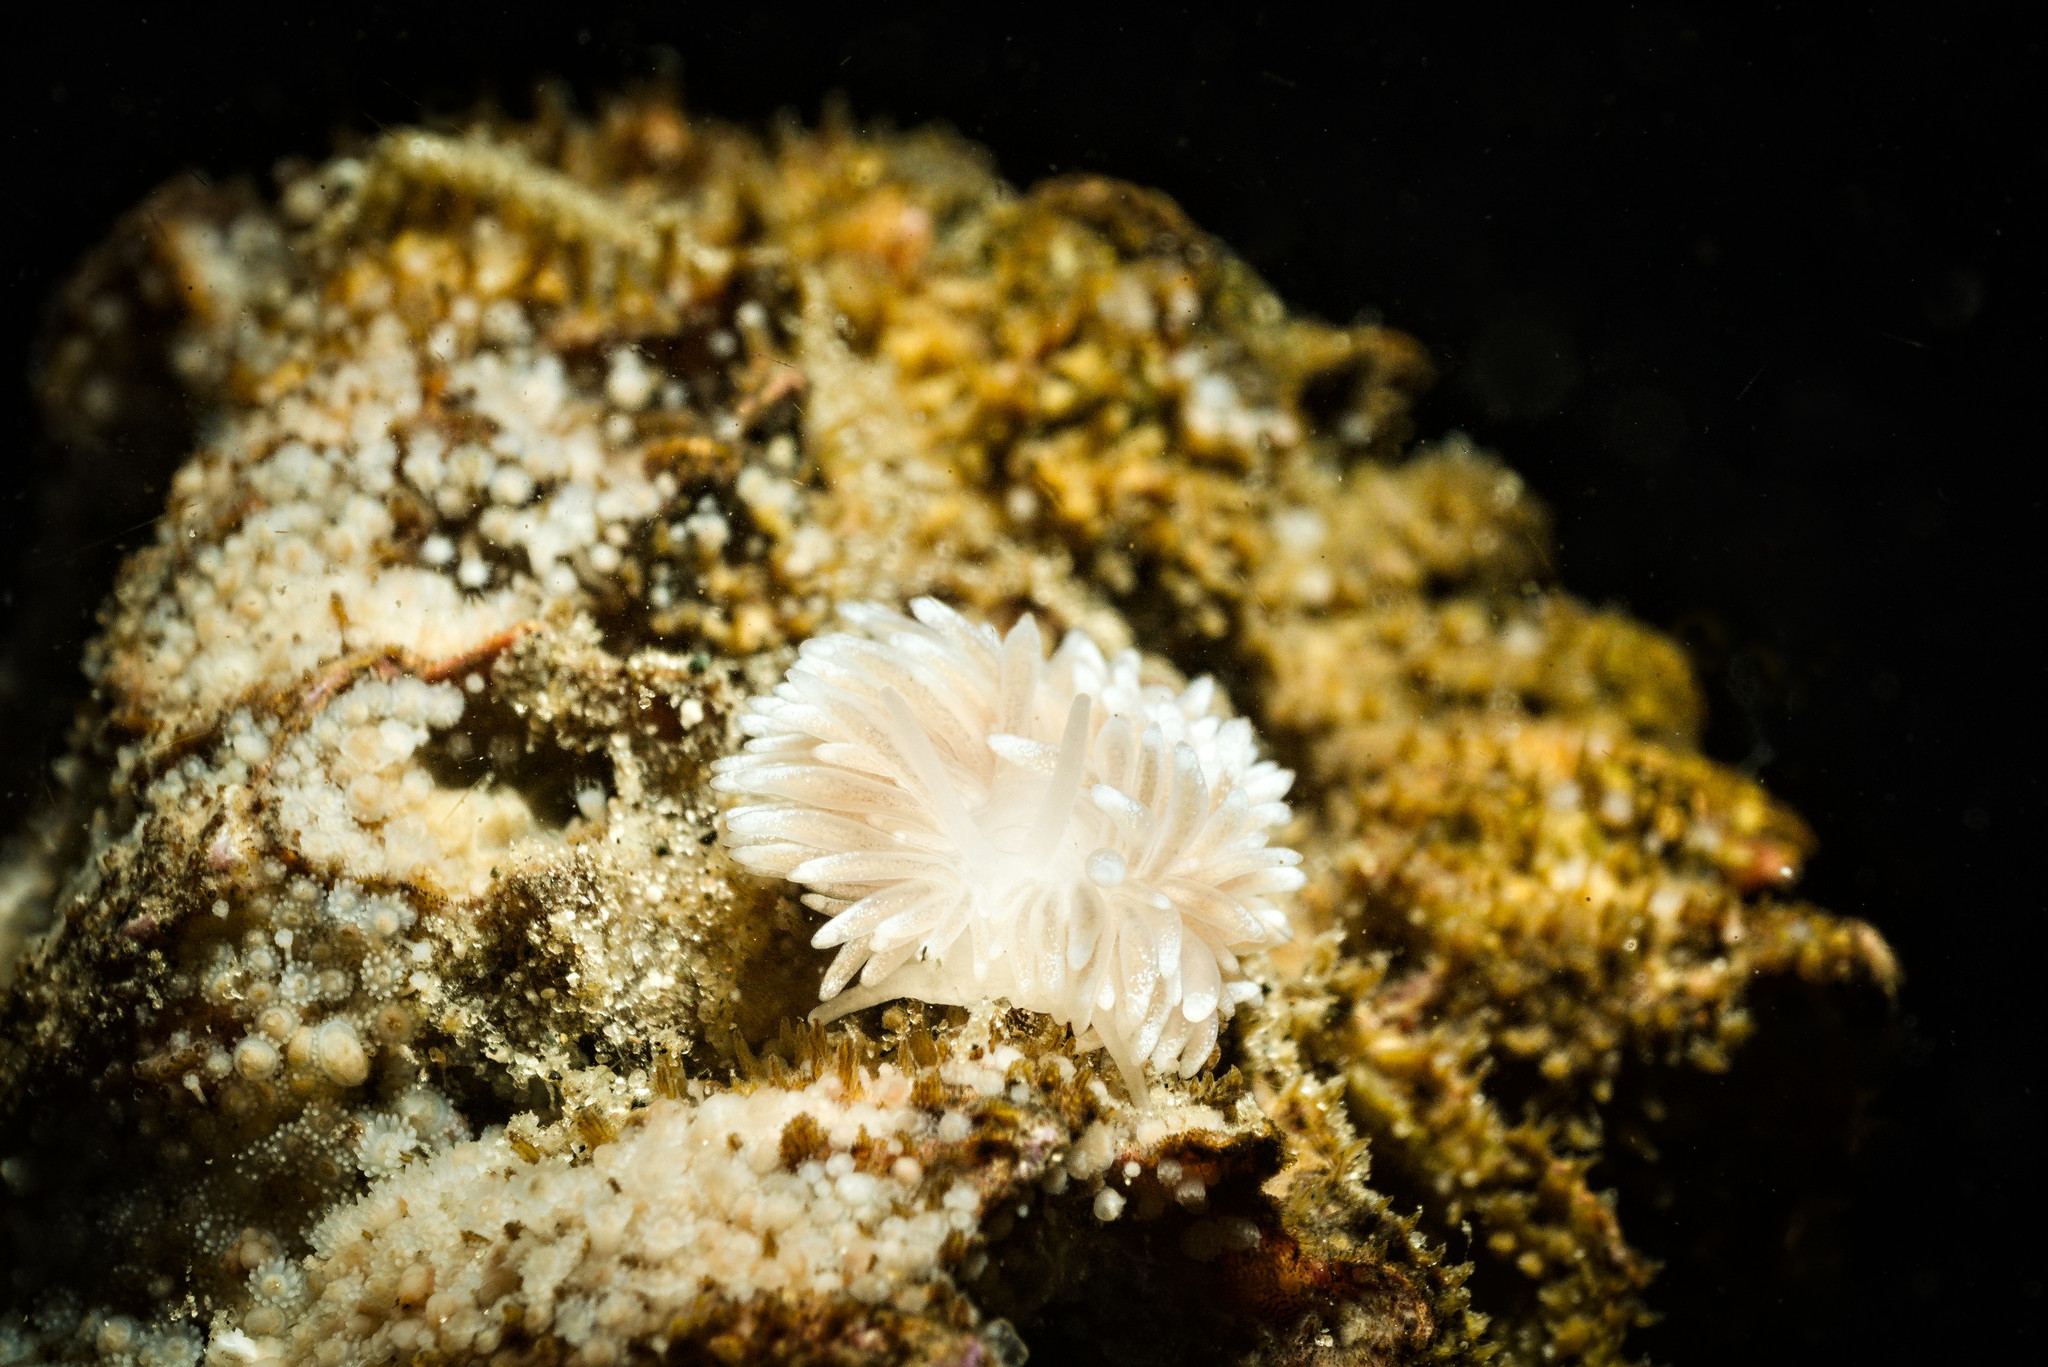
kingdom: Animalia
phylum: Mollusca
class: Gastropoda
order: Nudibranchia
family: Cuthonidae
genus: Cuthona
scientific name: Cuthona nana
